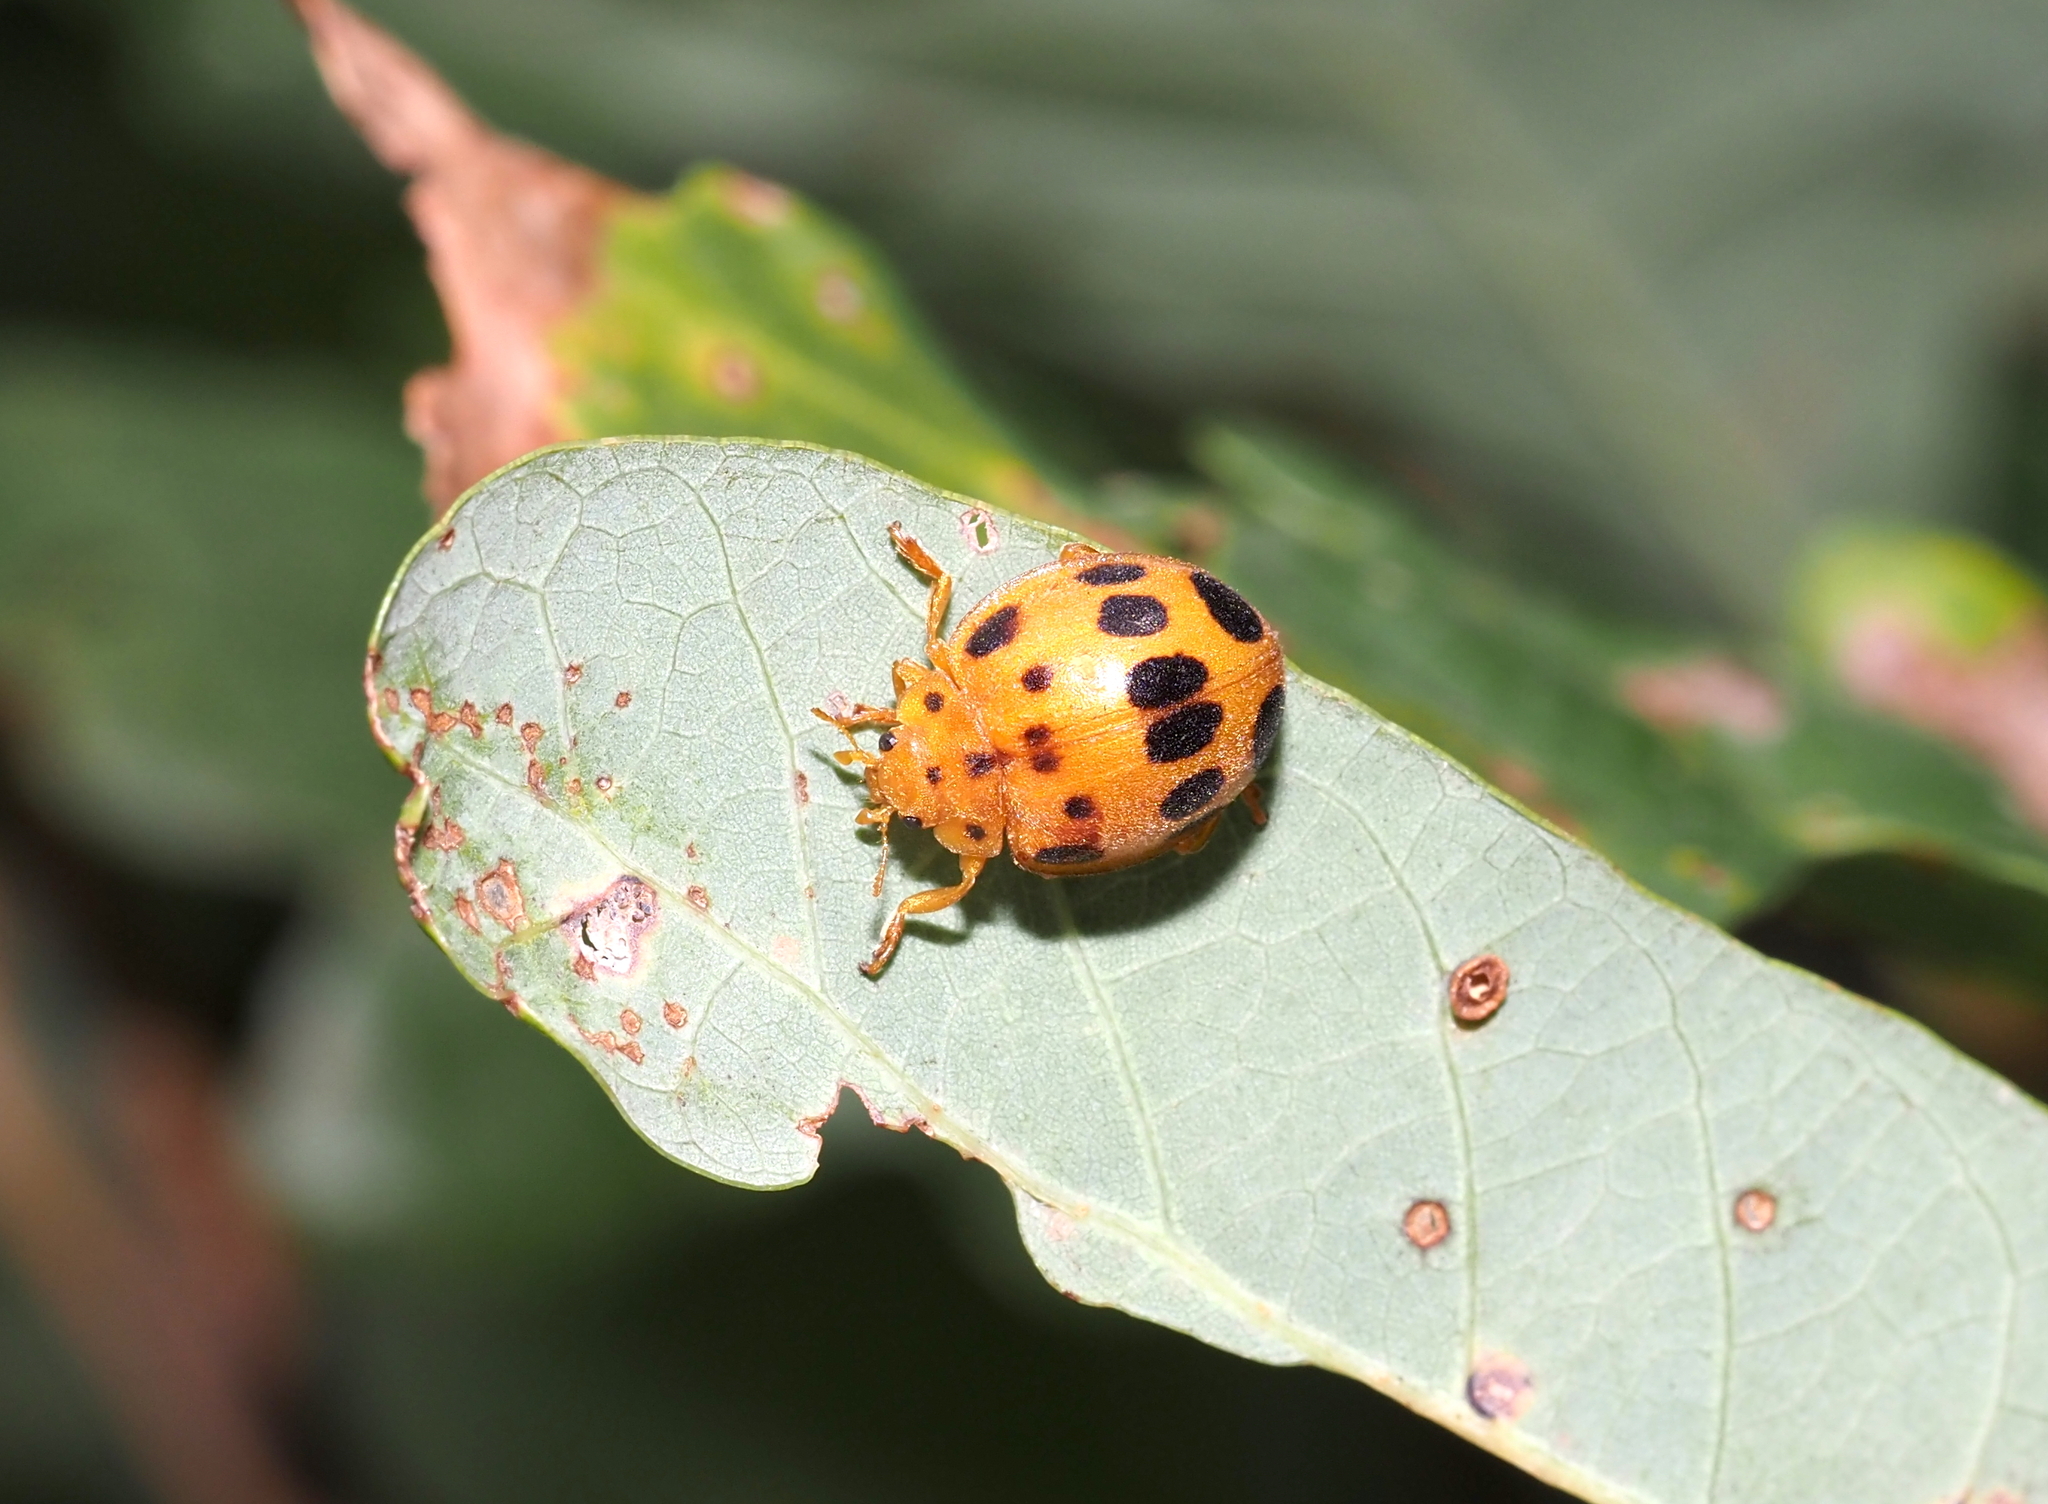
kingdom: Animalia
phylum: Arthropoda
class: Insecta
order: Coleoptera
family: Coccinellidae
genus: Epilachna
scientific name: Epilachna borealis
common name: Squash beetle
